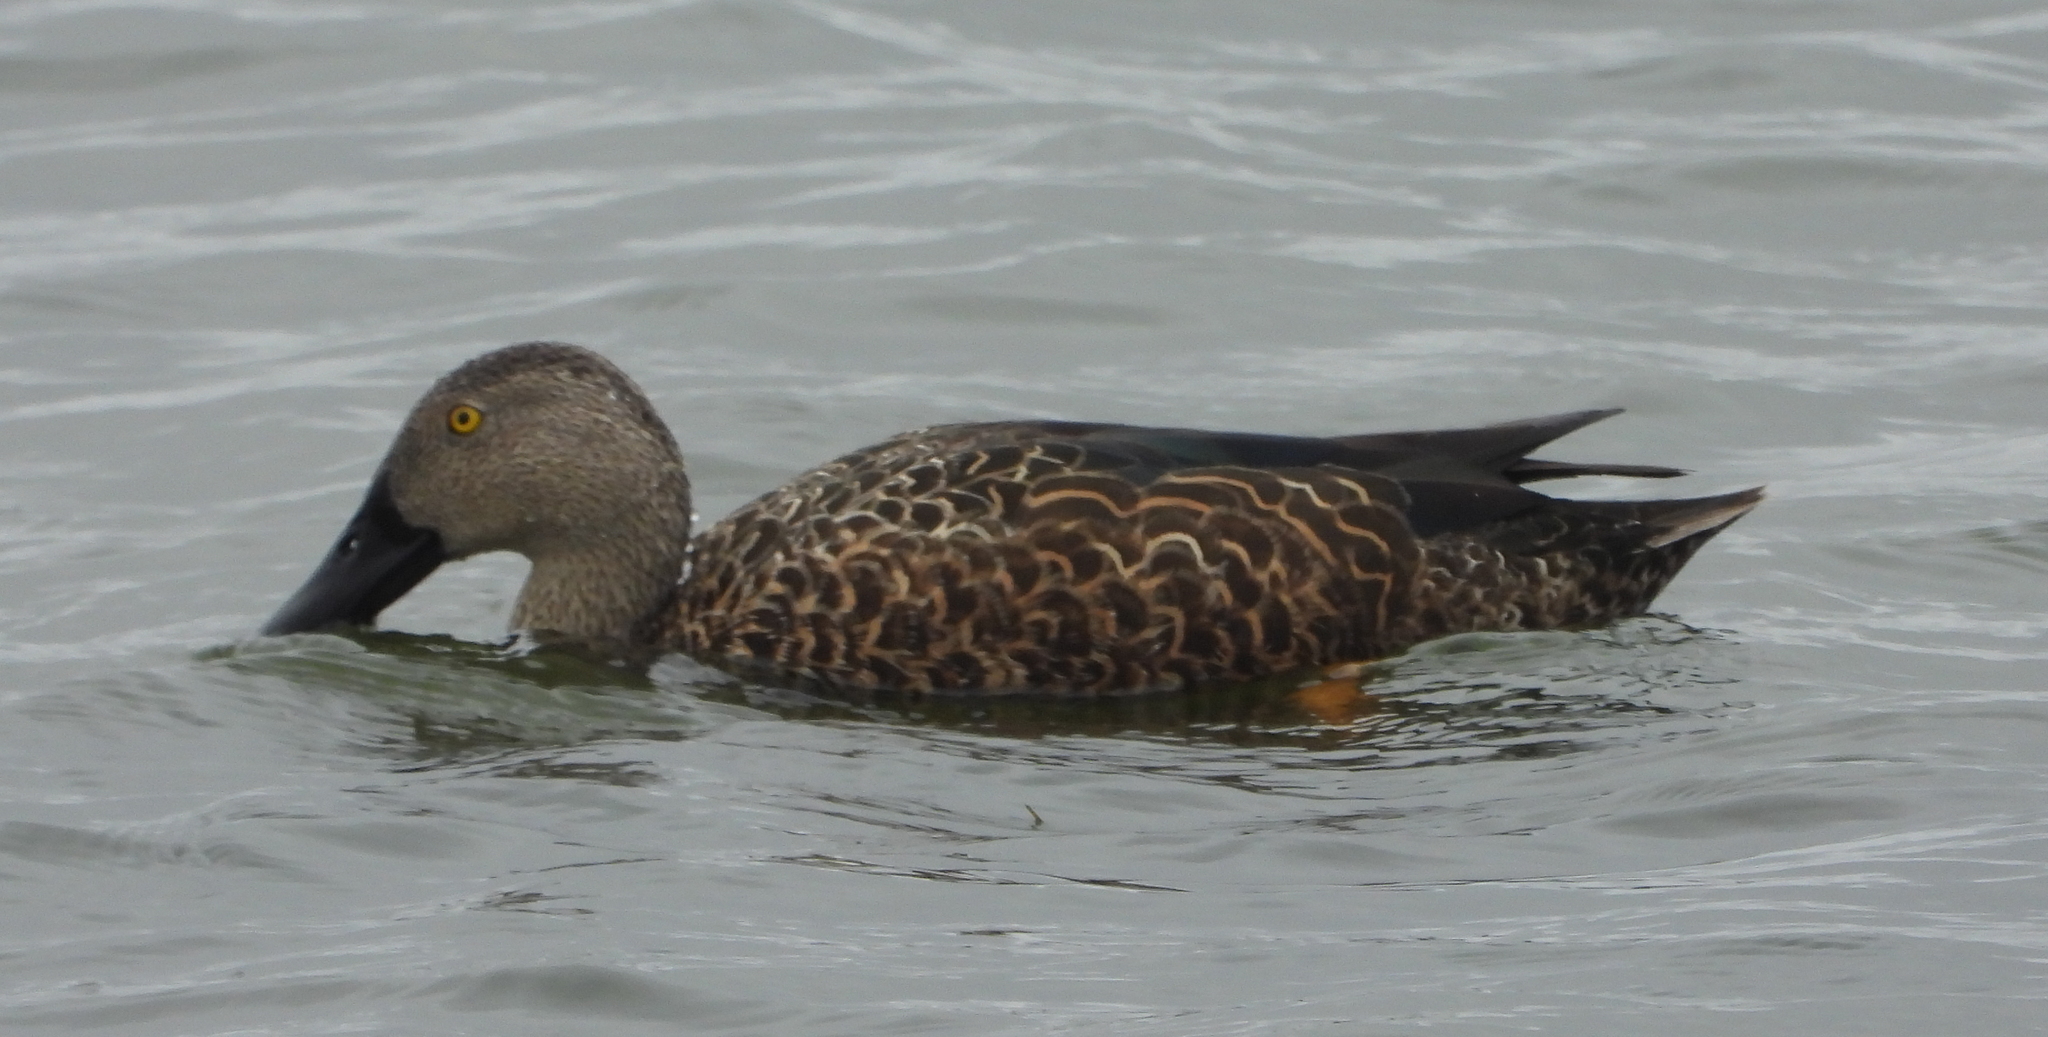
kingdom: Animalia
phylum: Chordata
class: Aves
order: Anseriformes
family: Anatidae
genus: Spatula
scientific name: Spatula smithii
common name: Cape shoveler
